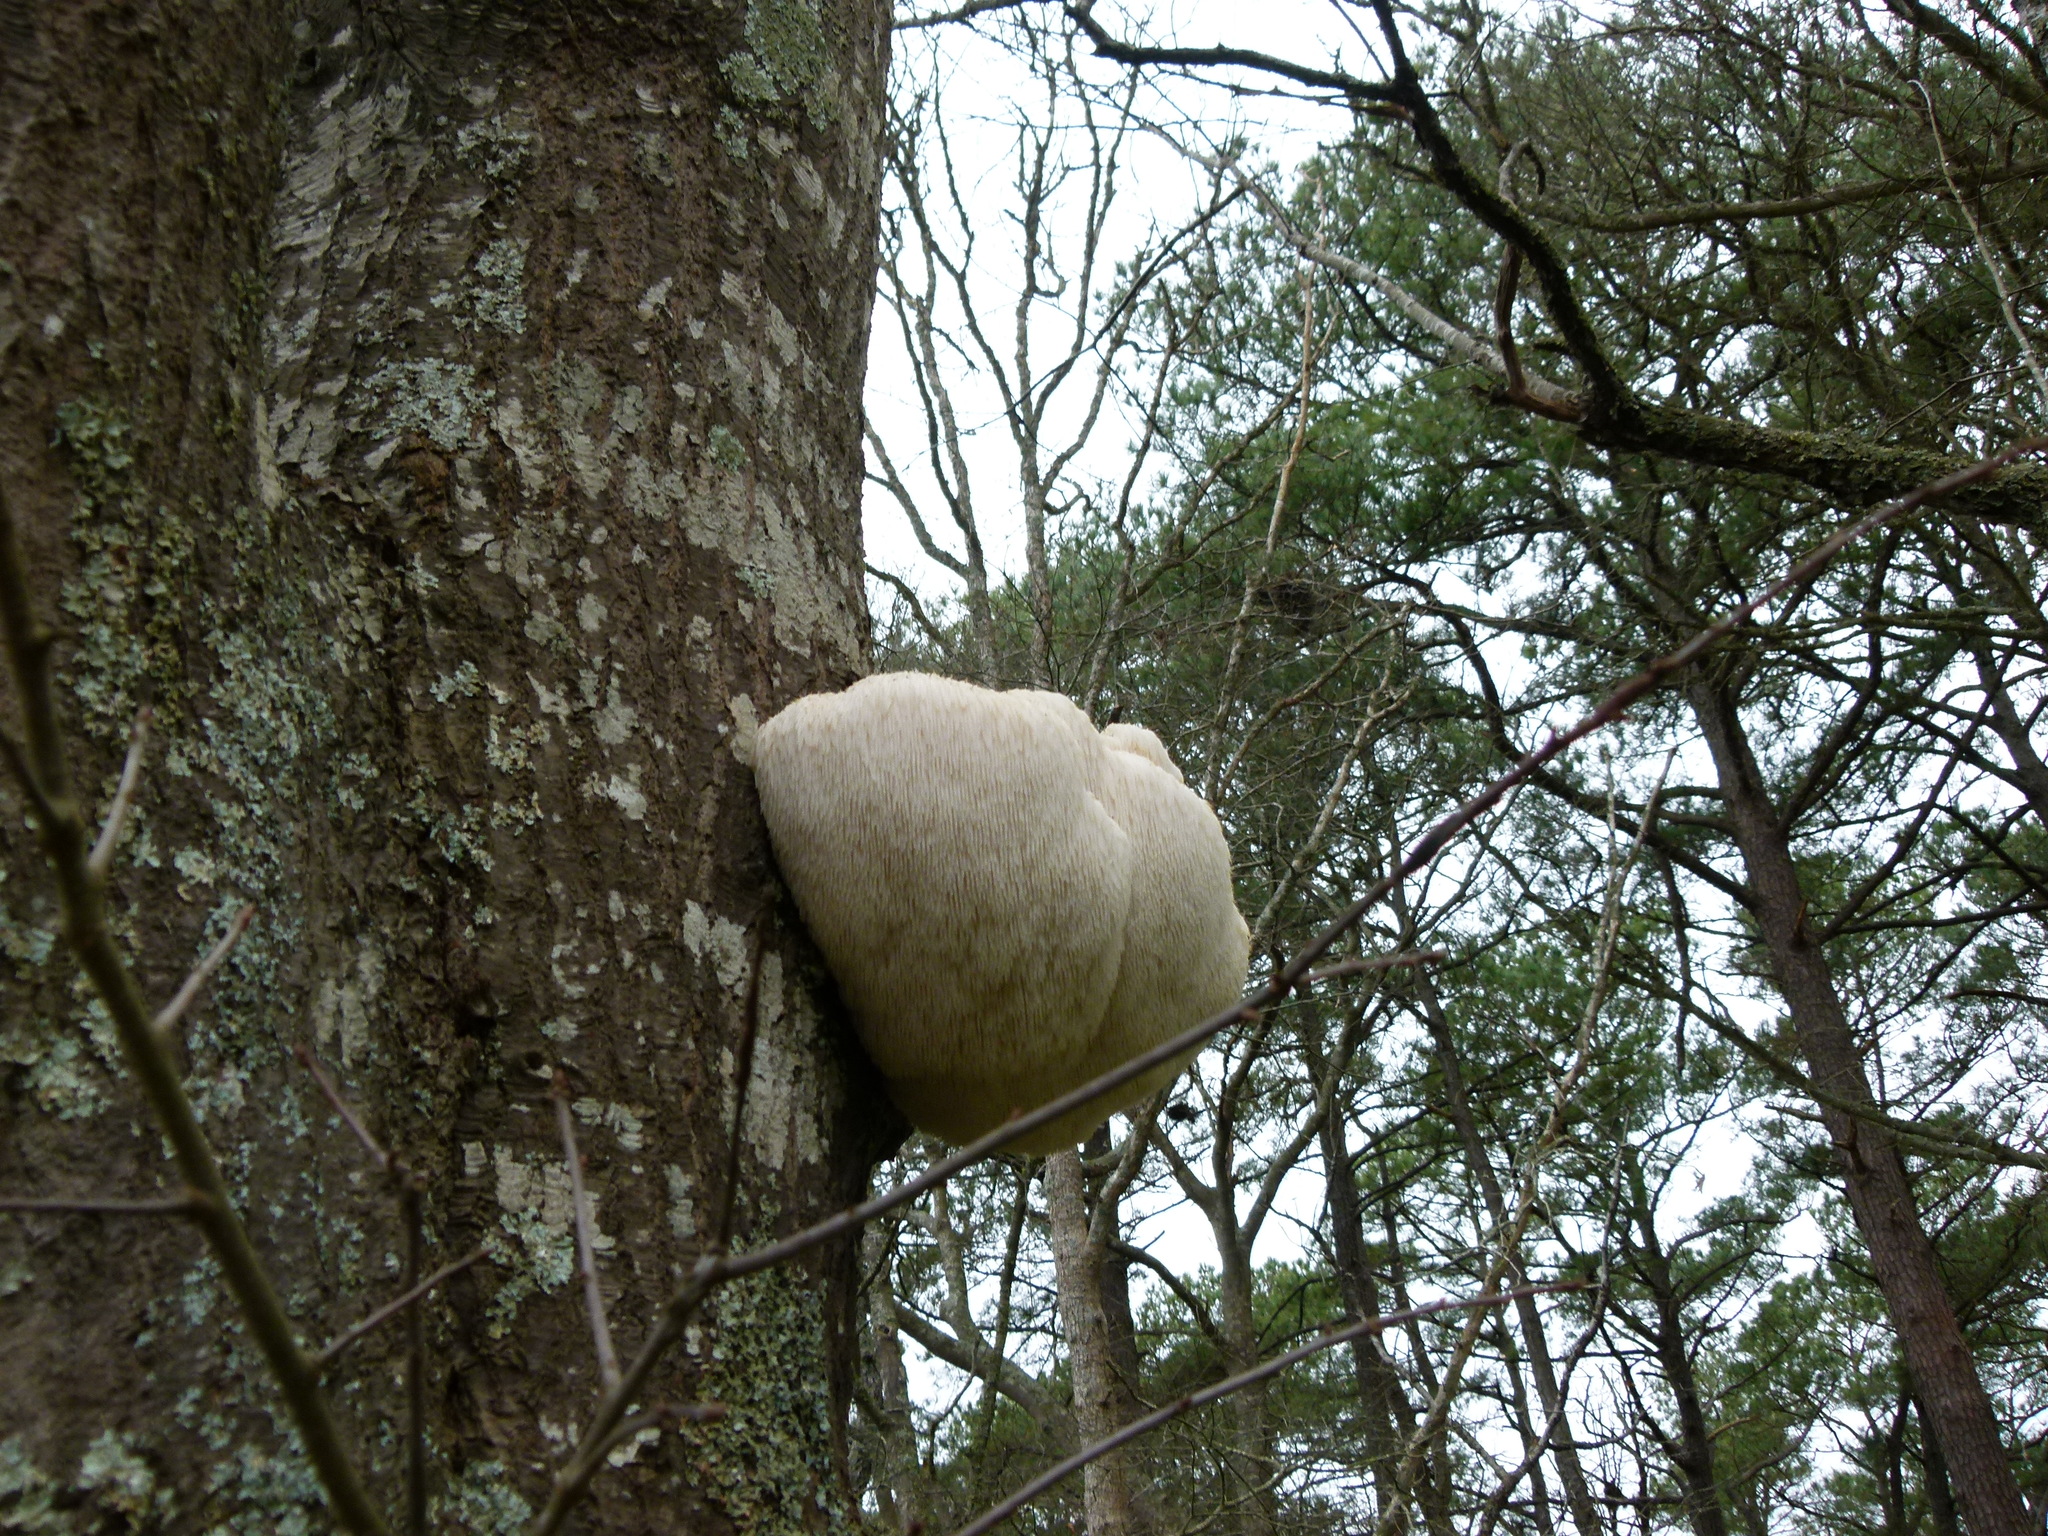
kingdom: Fungi
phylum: Basidiomycota
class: Agaricomycetes
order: Russulales
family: Hericiaceae
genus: Hericium
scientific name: Hericium erinaceus
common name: Bearded tooth
